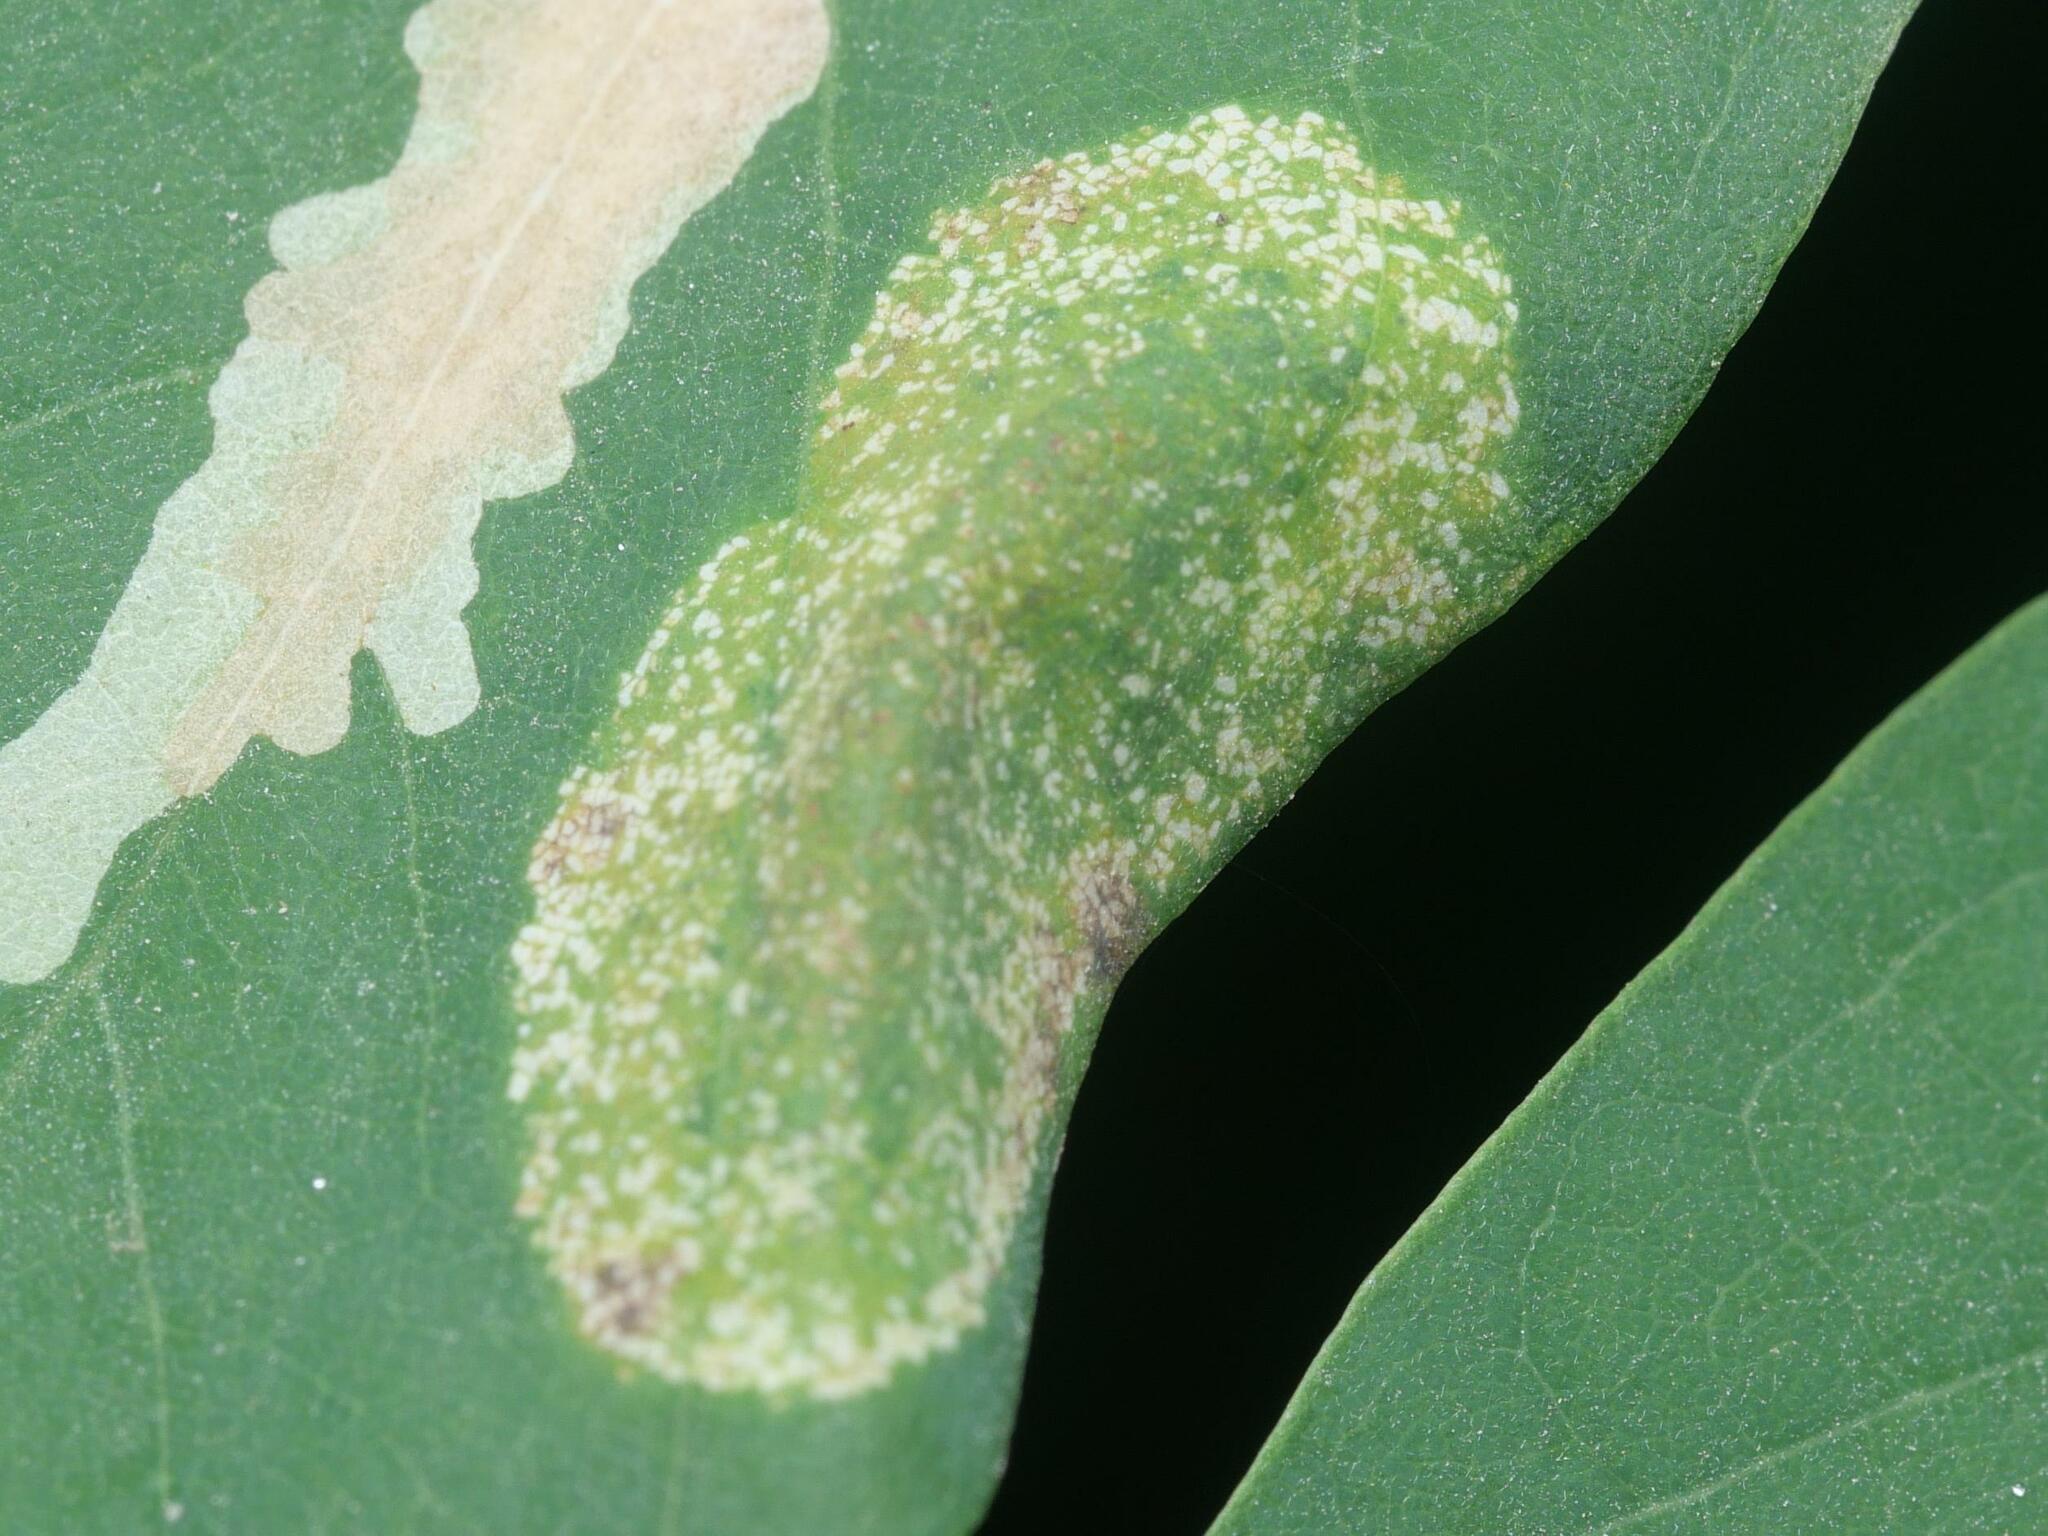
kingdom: Animalia
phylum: Arthropoda
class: Insecta
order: Lepidoptera
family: Gracillariidae
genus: Macrosaccus
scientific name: Macrosaccus robiniella
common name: Leaf blotch miner moth
